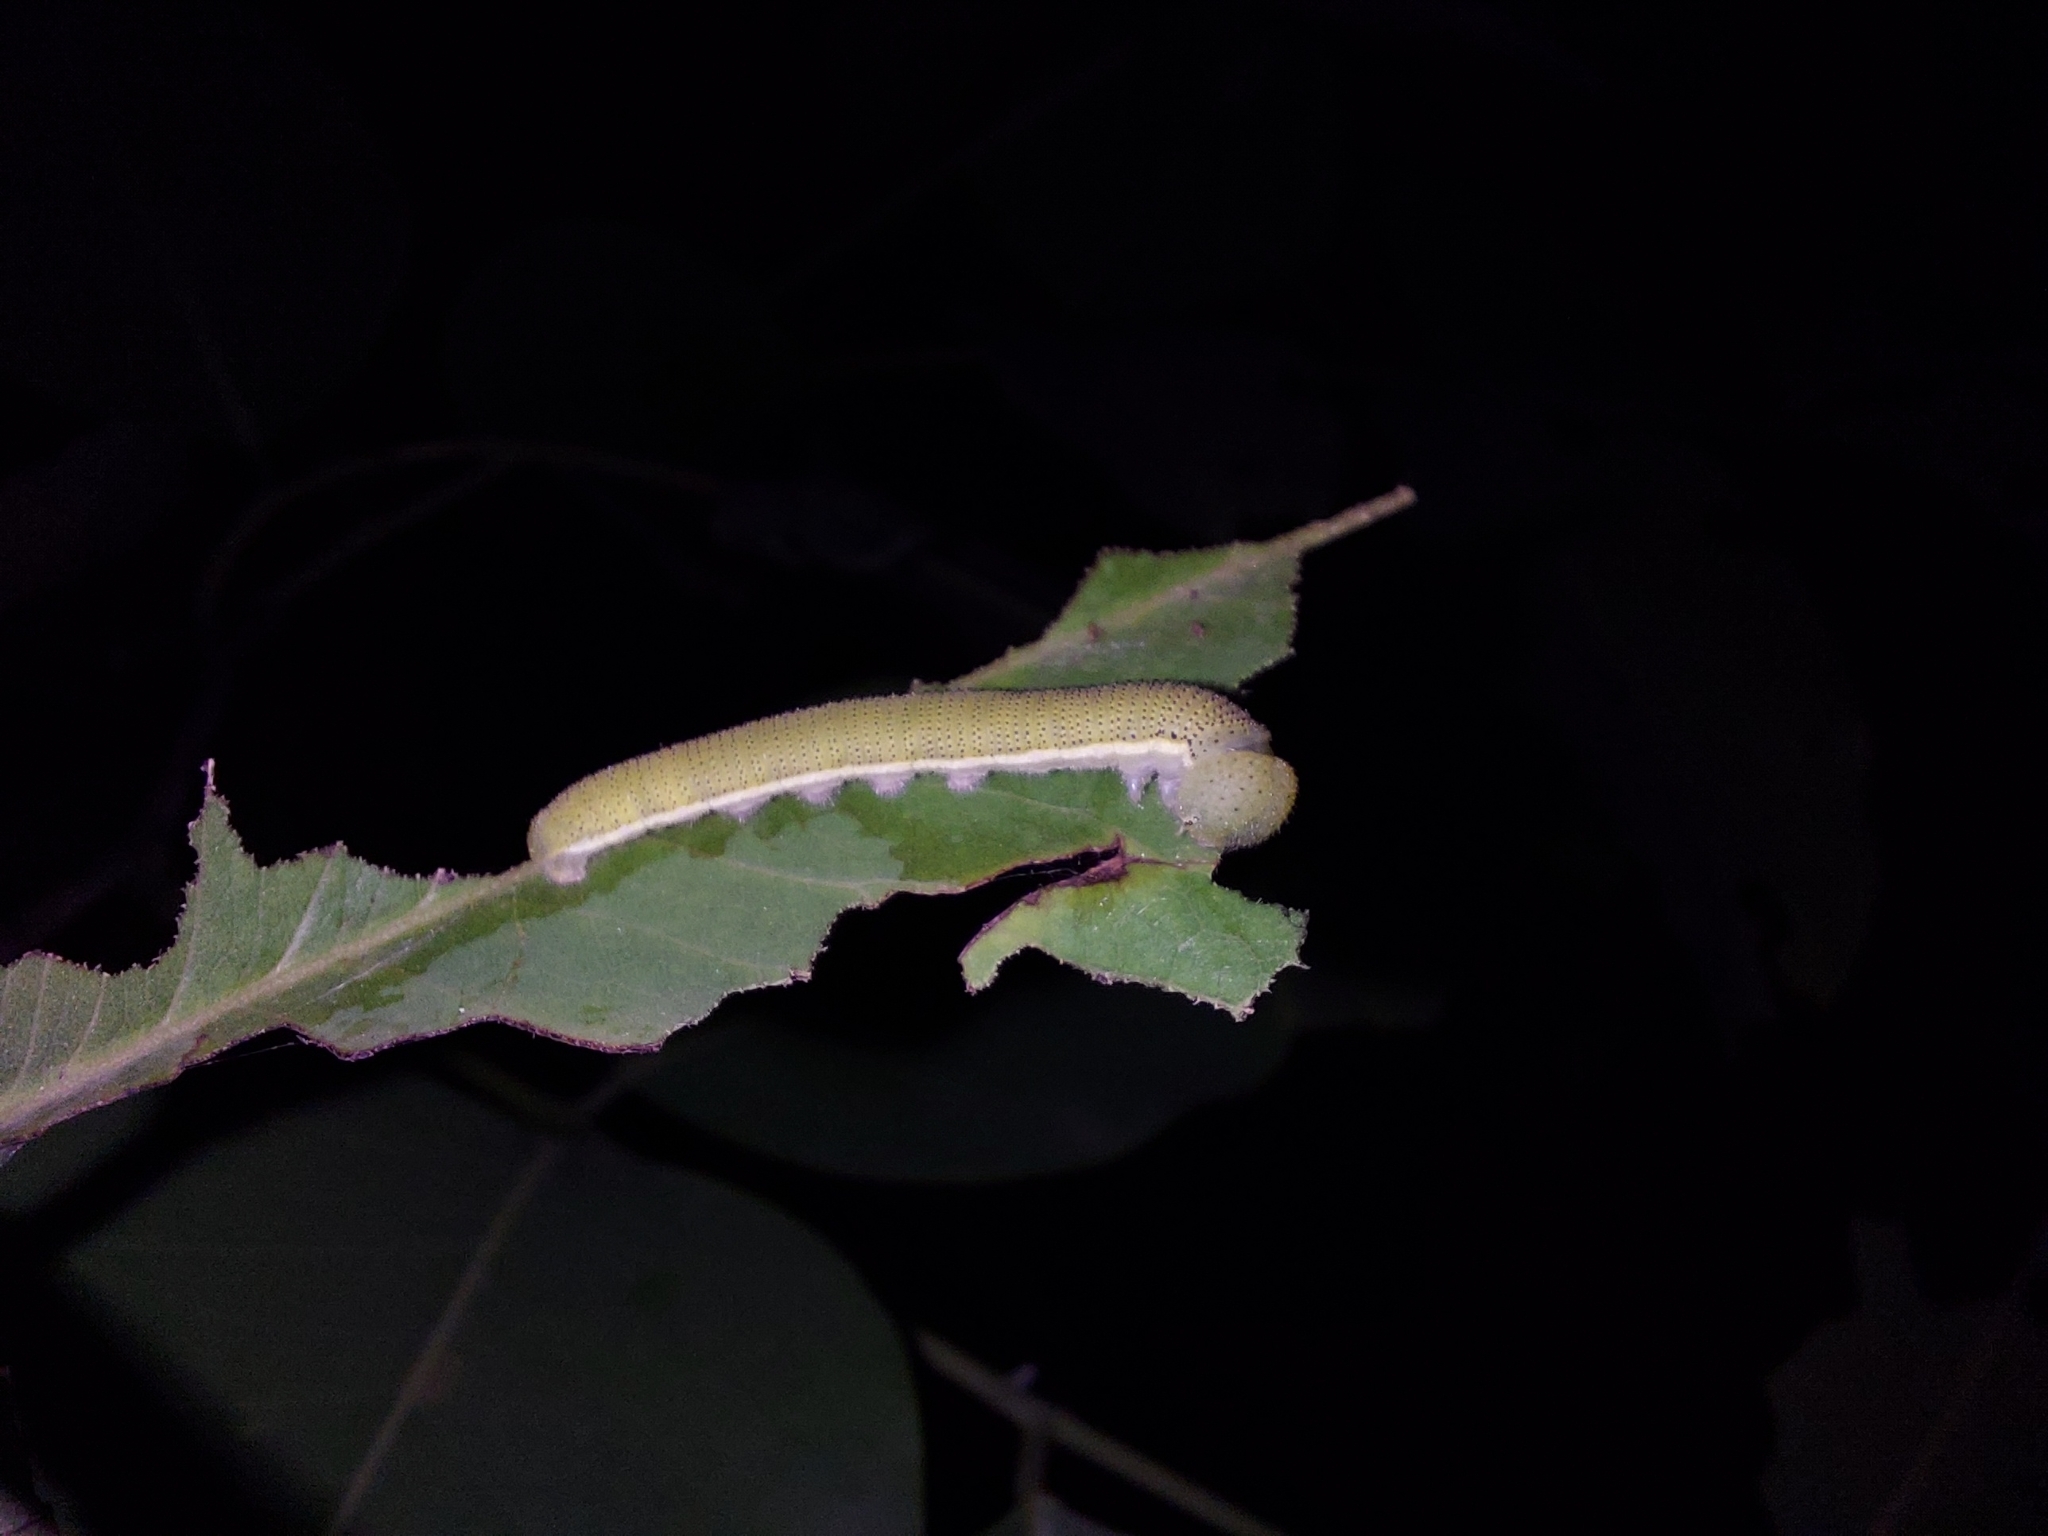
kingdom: Animalia
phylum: Arthropoda
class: Insecta
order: Lepidoptera
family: Pieridae
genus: Catopsilia
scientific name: Catopsilia pomona
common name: Common emigrant
